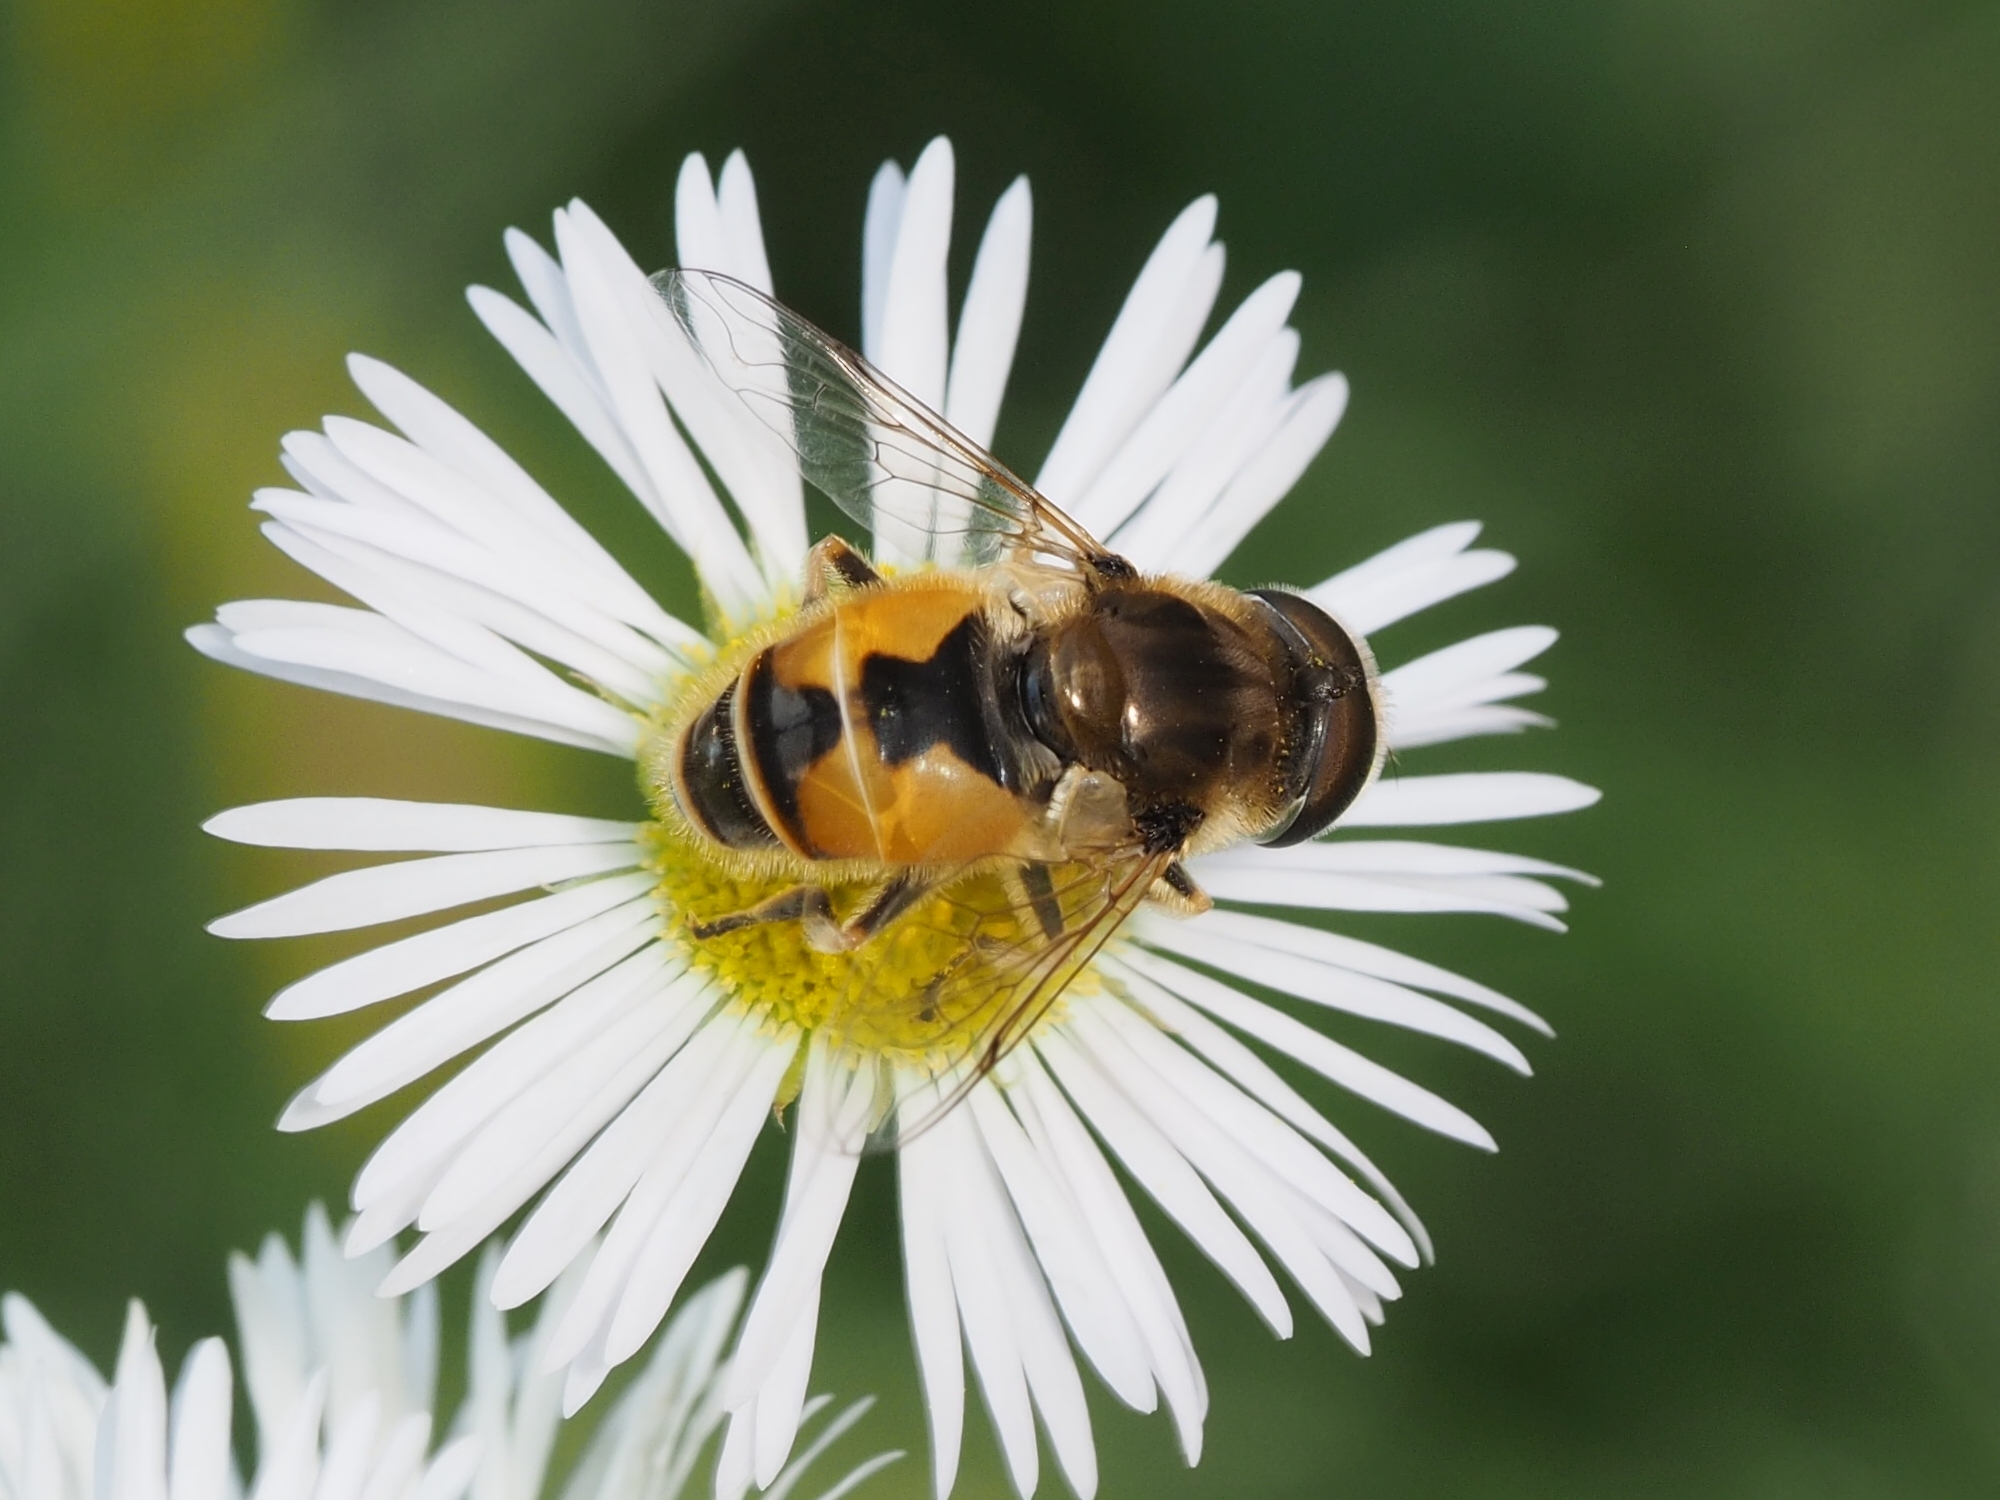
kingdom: Animalia
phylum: Arthropoda
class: Insecta
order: Diptera
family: Syrphidae
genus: Eristalis
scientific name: Eristalis arbustorum
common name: Hover fly
